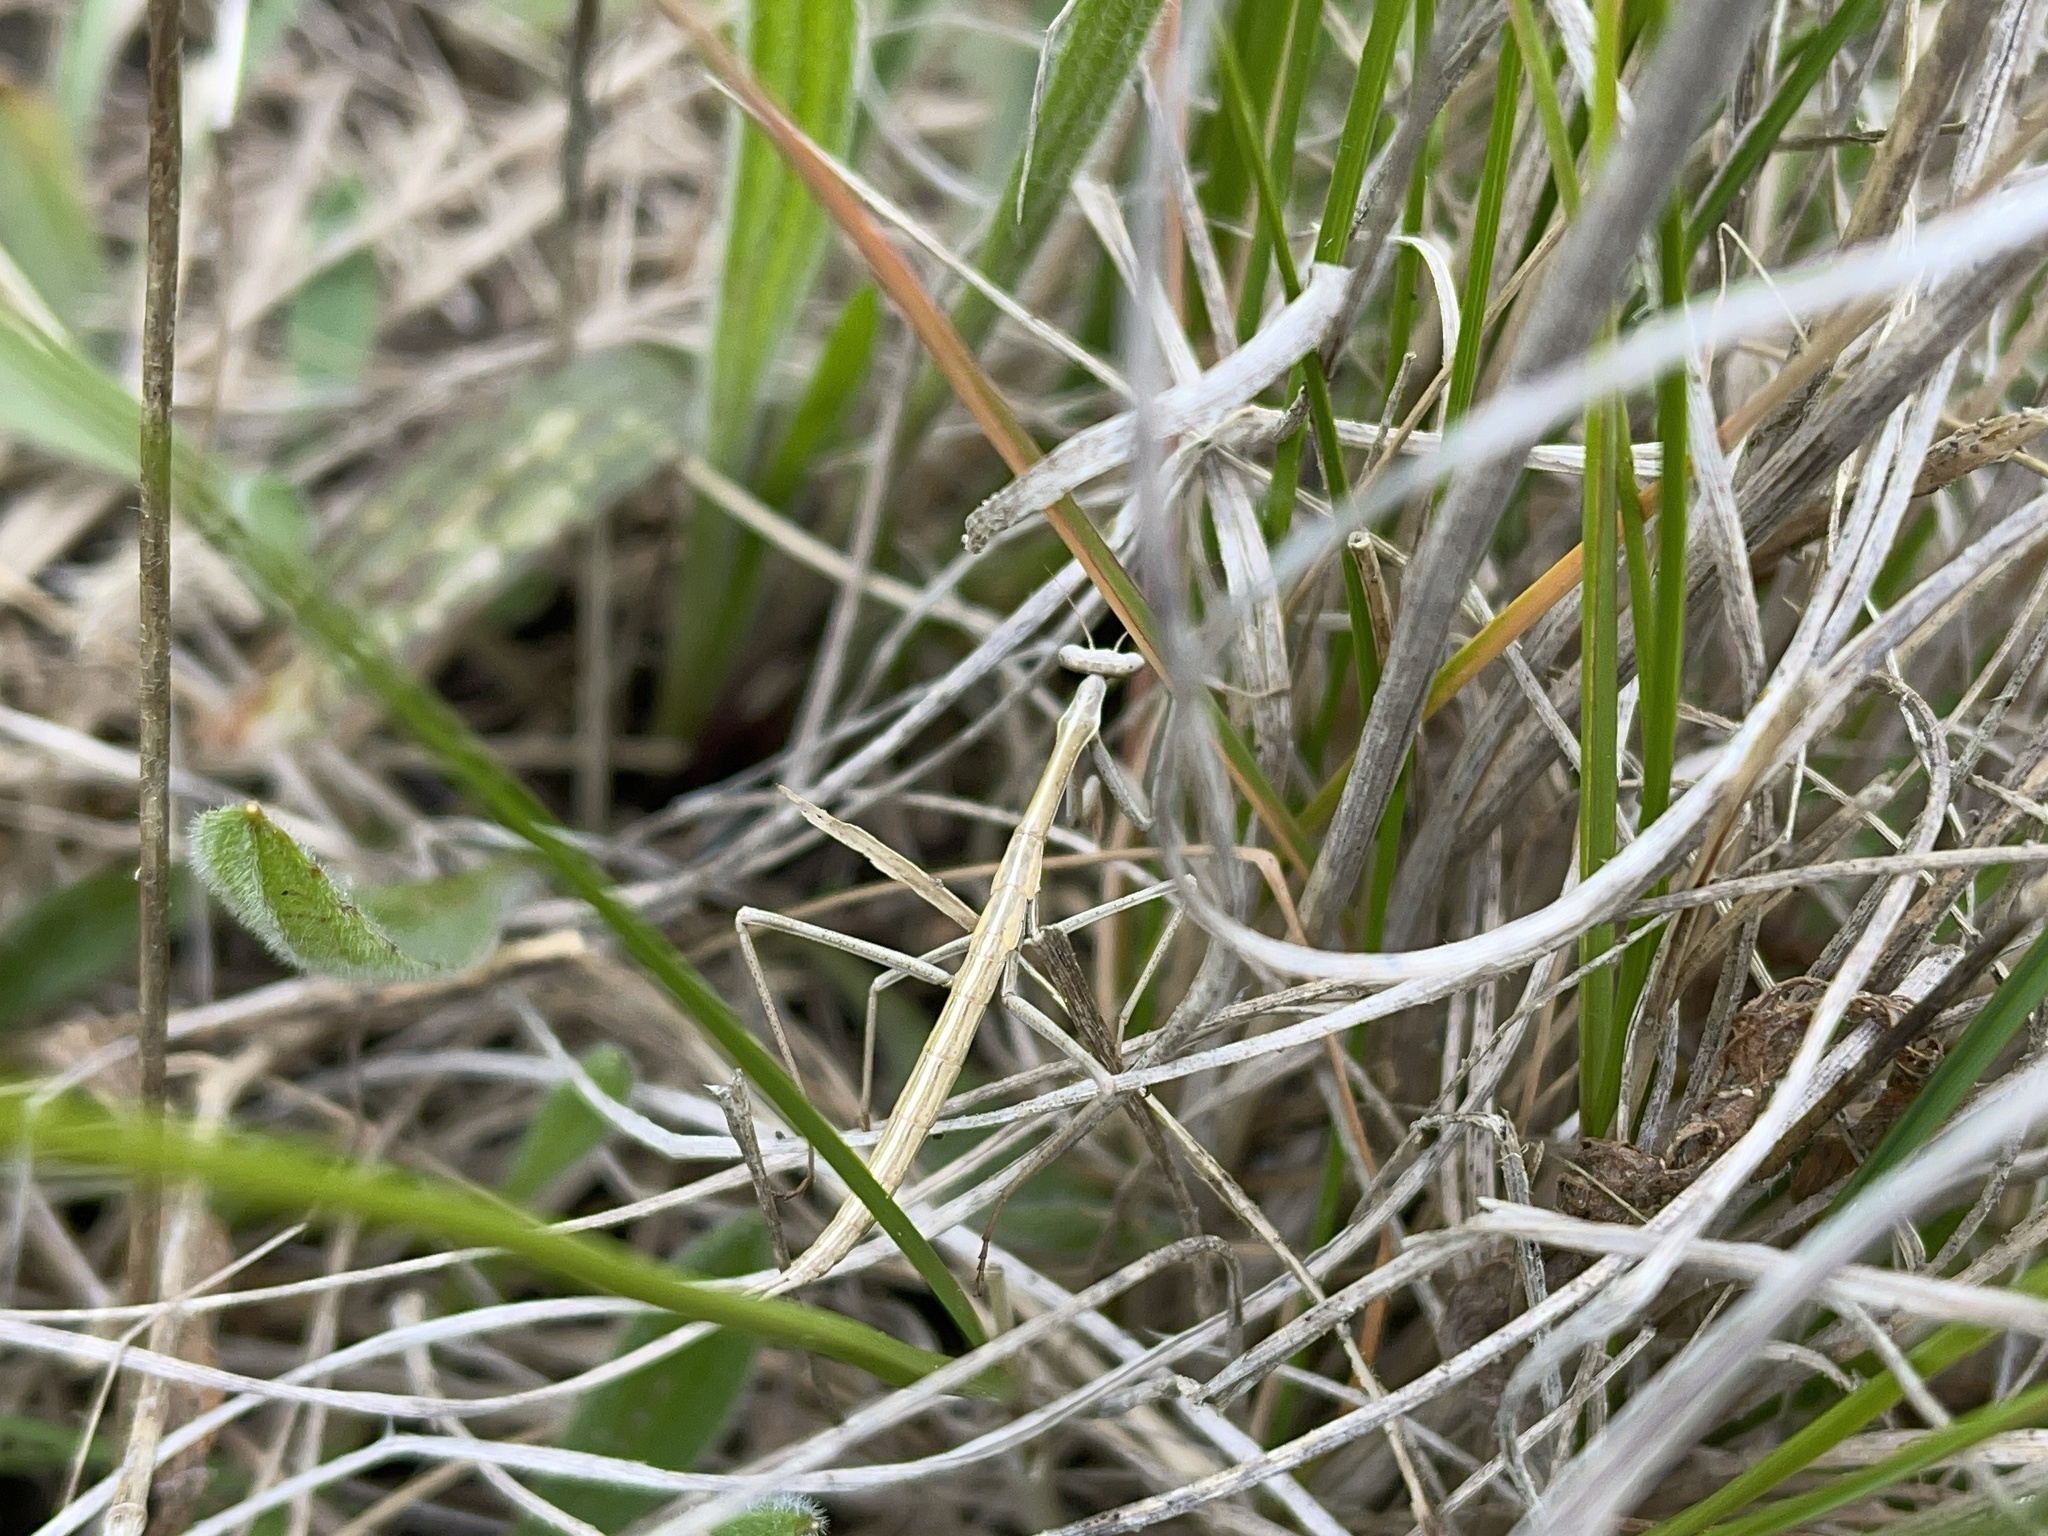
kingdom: Animalia
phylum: Arthropoda
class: Insecta
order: Mantodea
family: Mantidae
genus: Archimantis
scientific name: Archimantis sobrina
